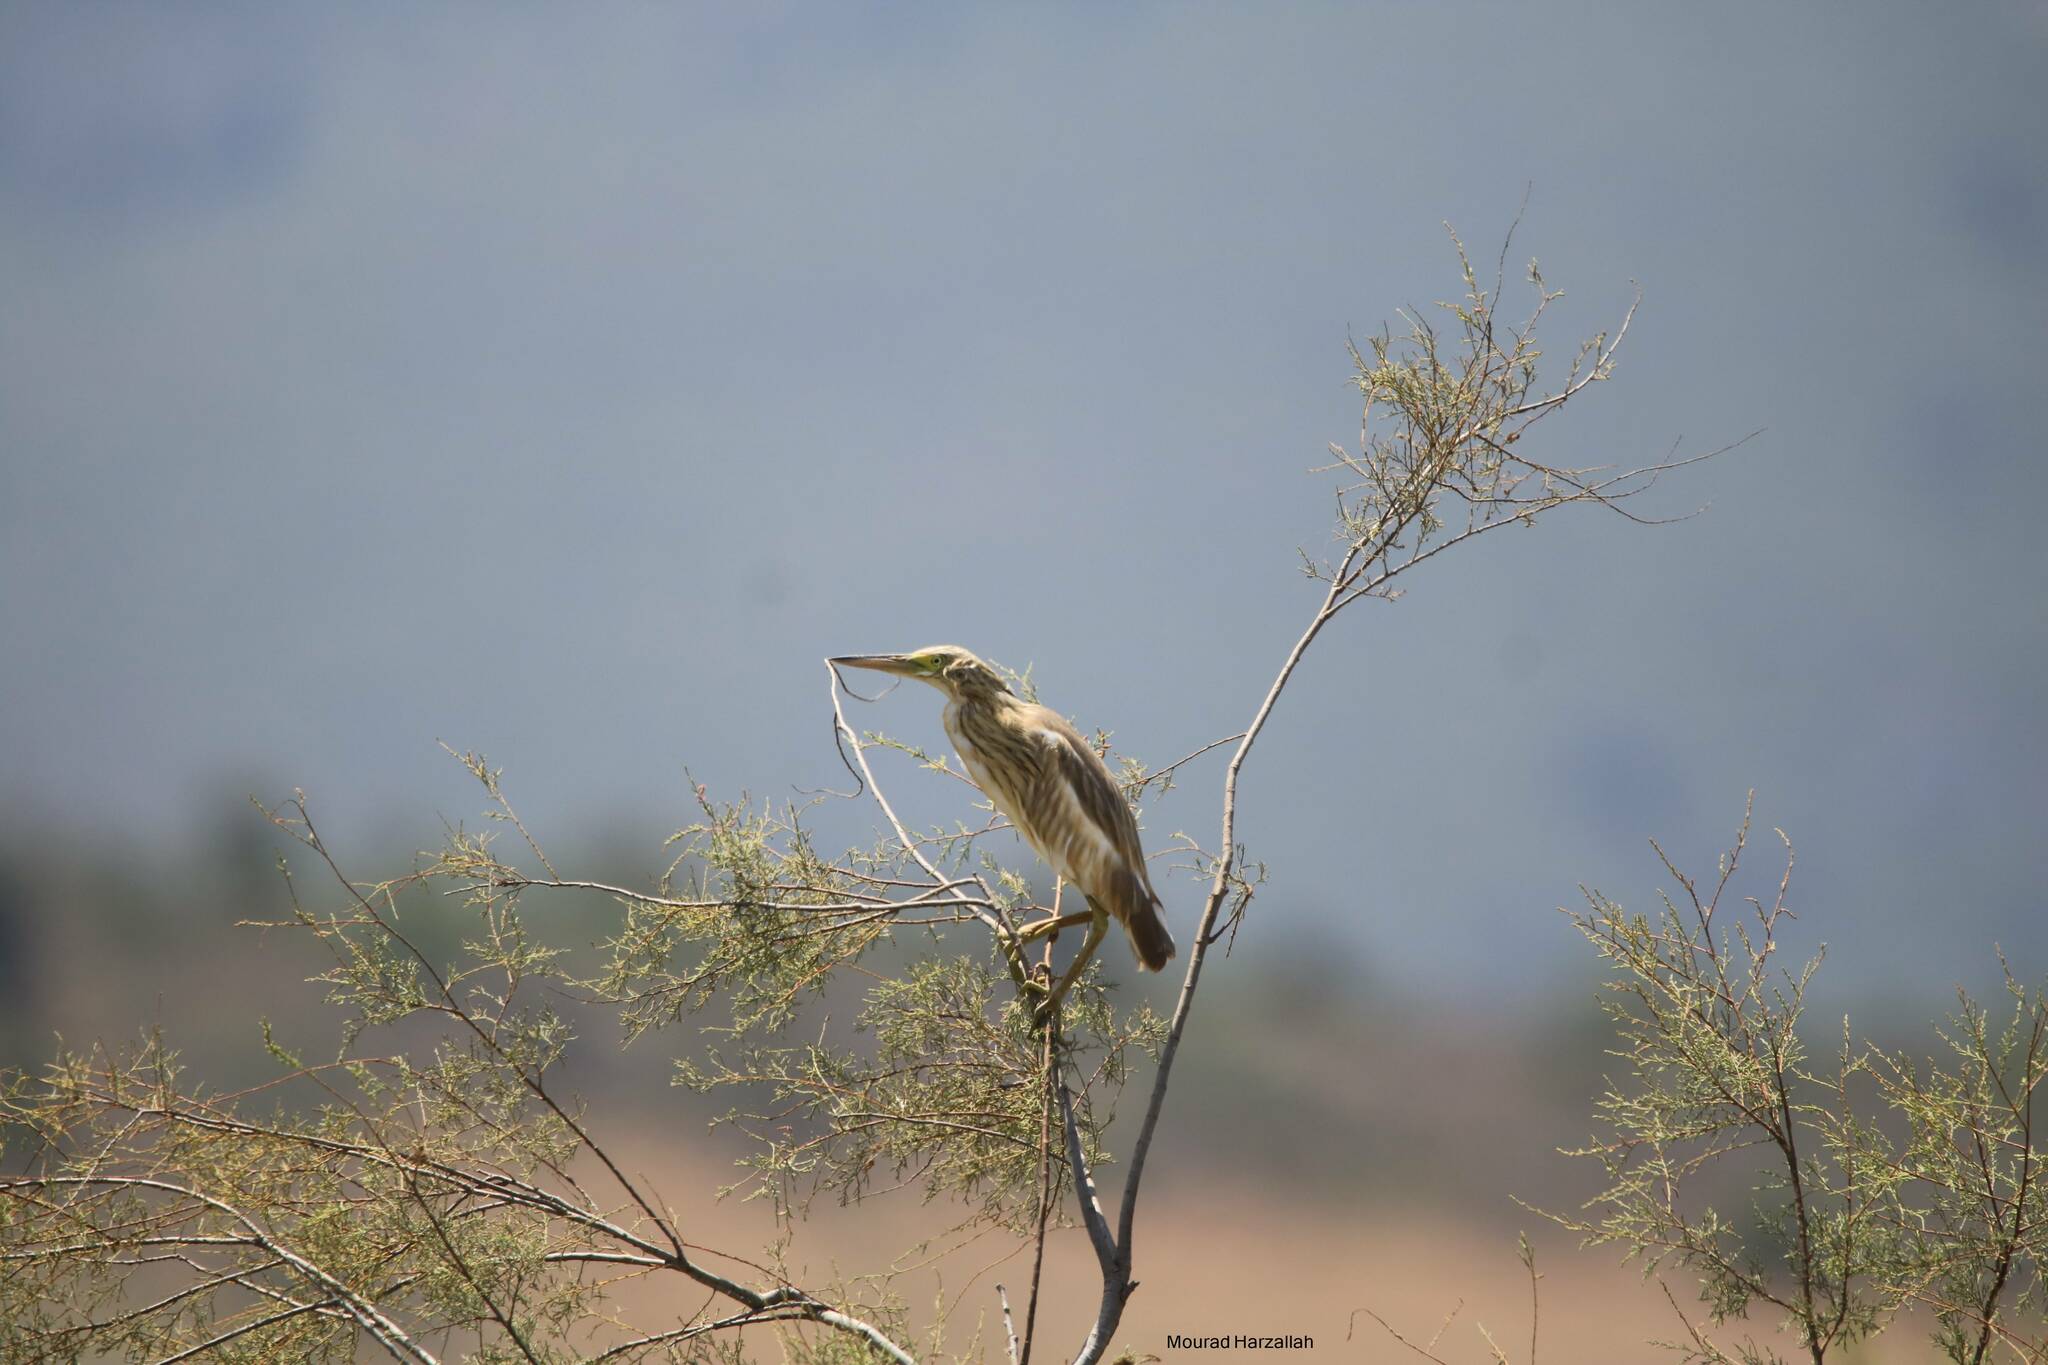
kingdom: Animalia
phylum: Chordata
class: Aves
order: Pelecaniformes
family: Ardeidae
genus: Ardeola
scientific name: Ardeola ralloides
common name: Squacco heron
